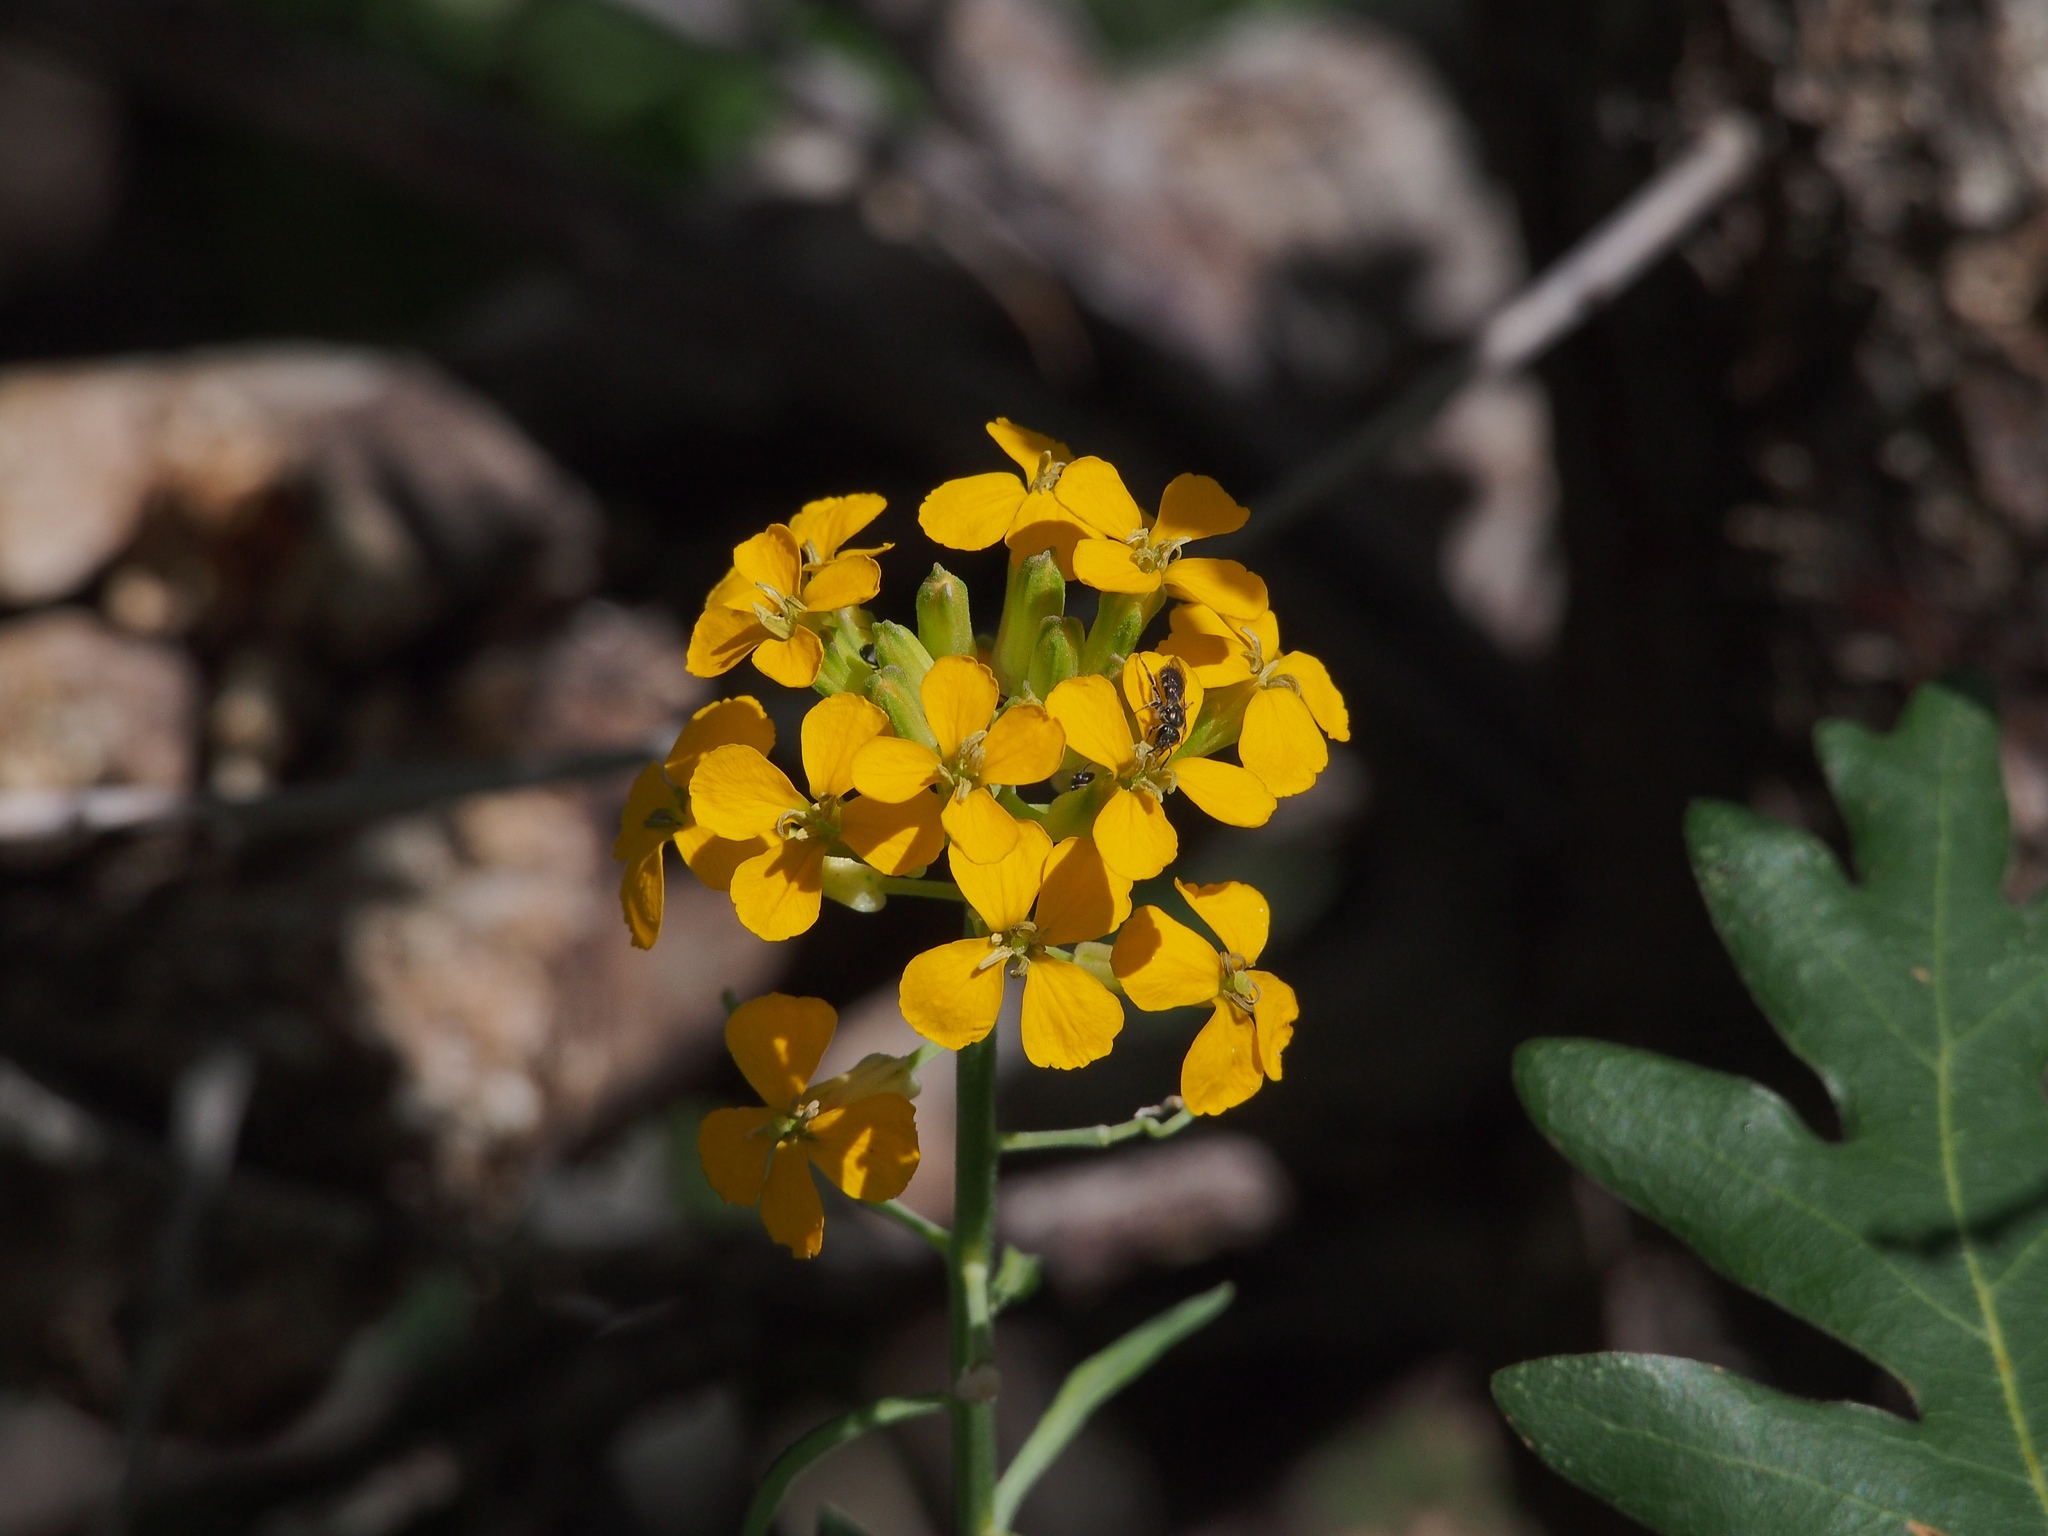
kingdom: Plantae
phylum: Tracheophyta
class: Magnoliopsida
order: Brassicales
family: Brassicaceae
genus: Erysimum
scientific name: Erysimum capitatum
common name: Western wallflower
